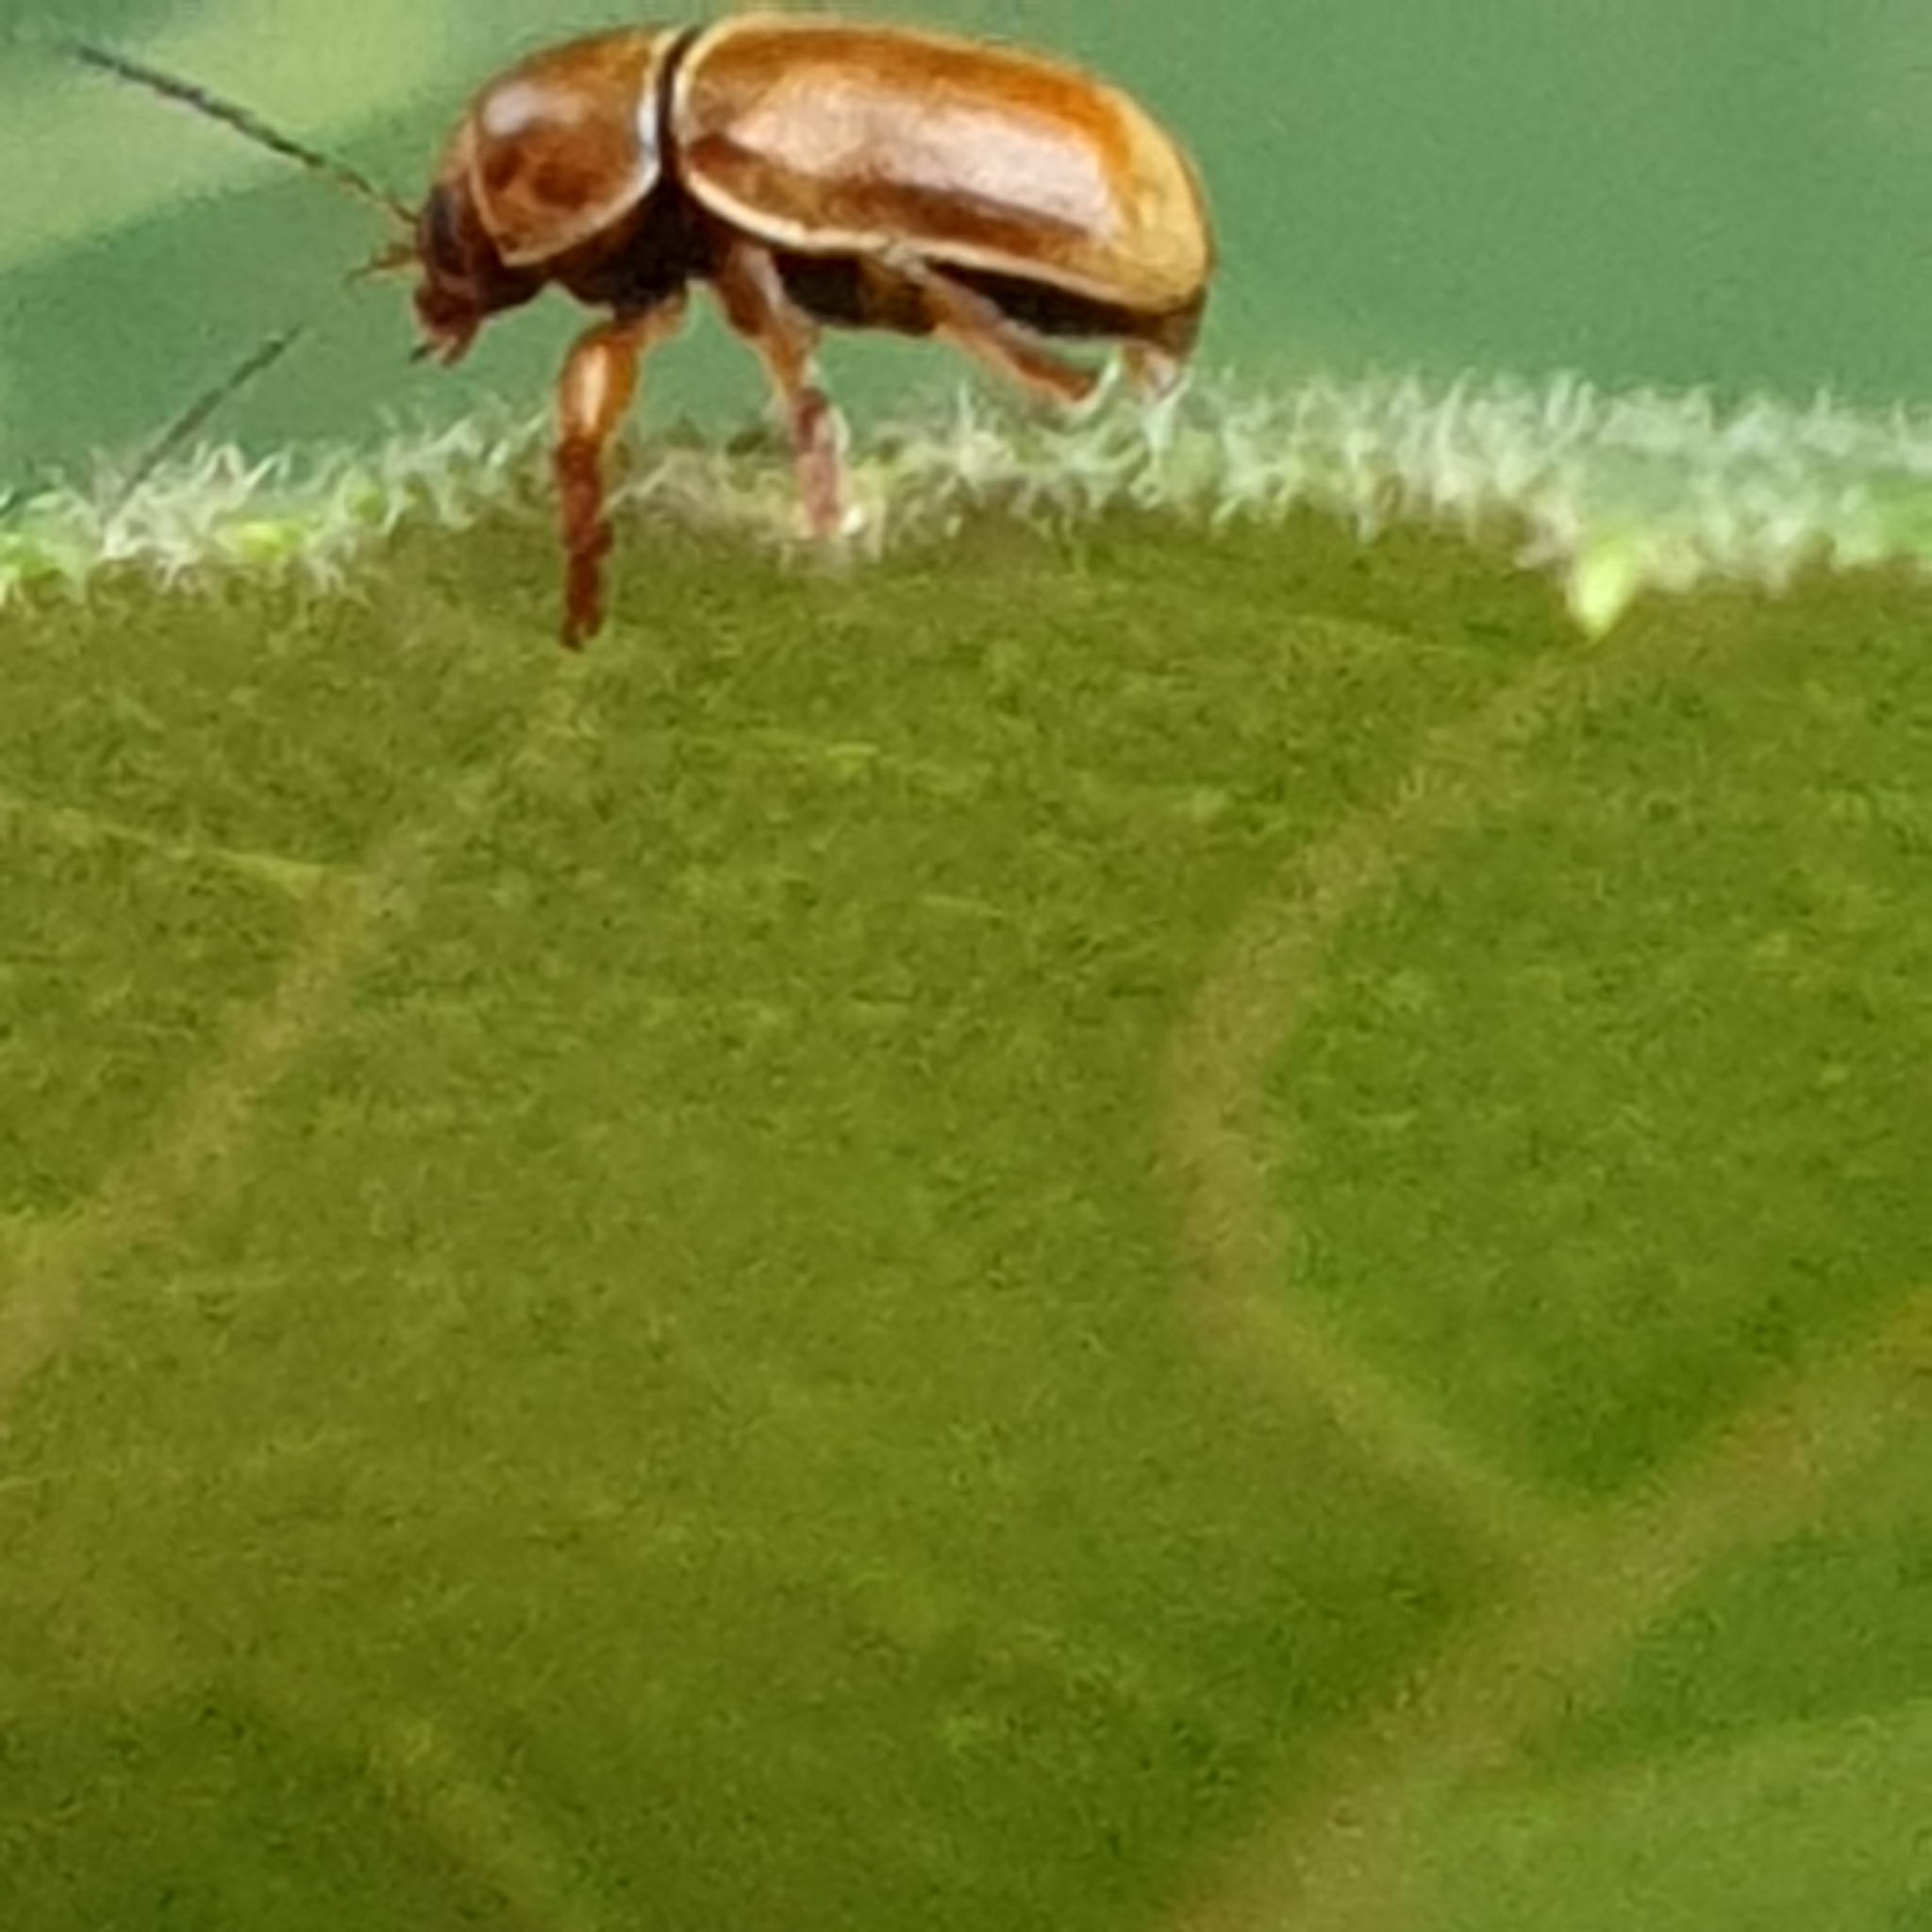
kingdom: Animalia
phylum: Arthropoda
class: Insecta
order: Coleoptera
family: Chrysomelidae
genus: Cryptocephalus
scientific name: Cryptocephalus pini
